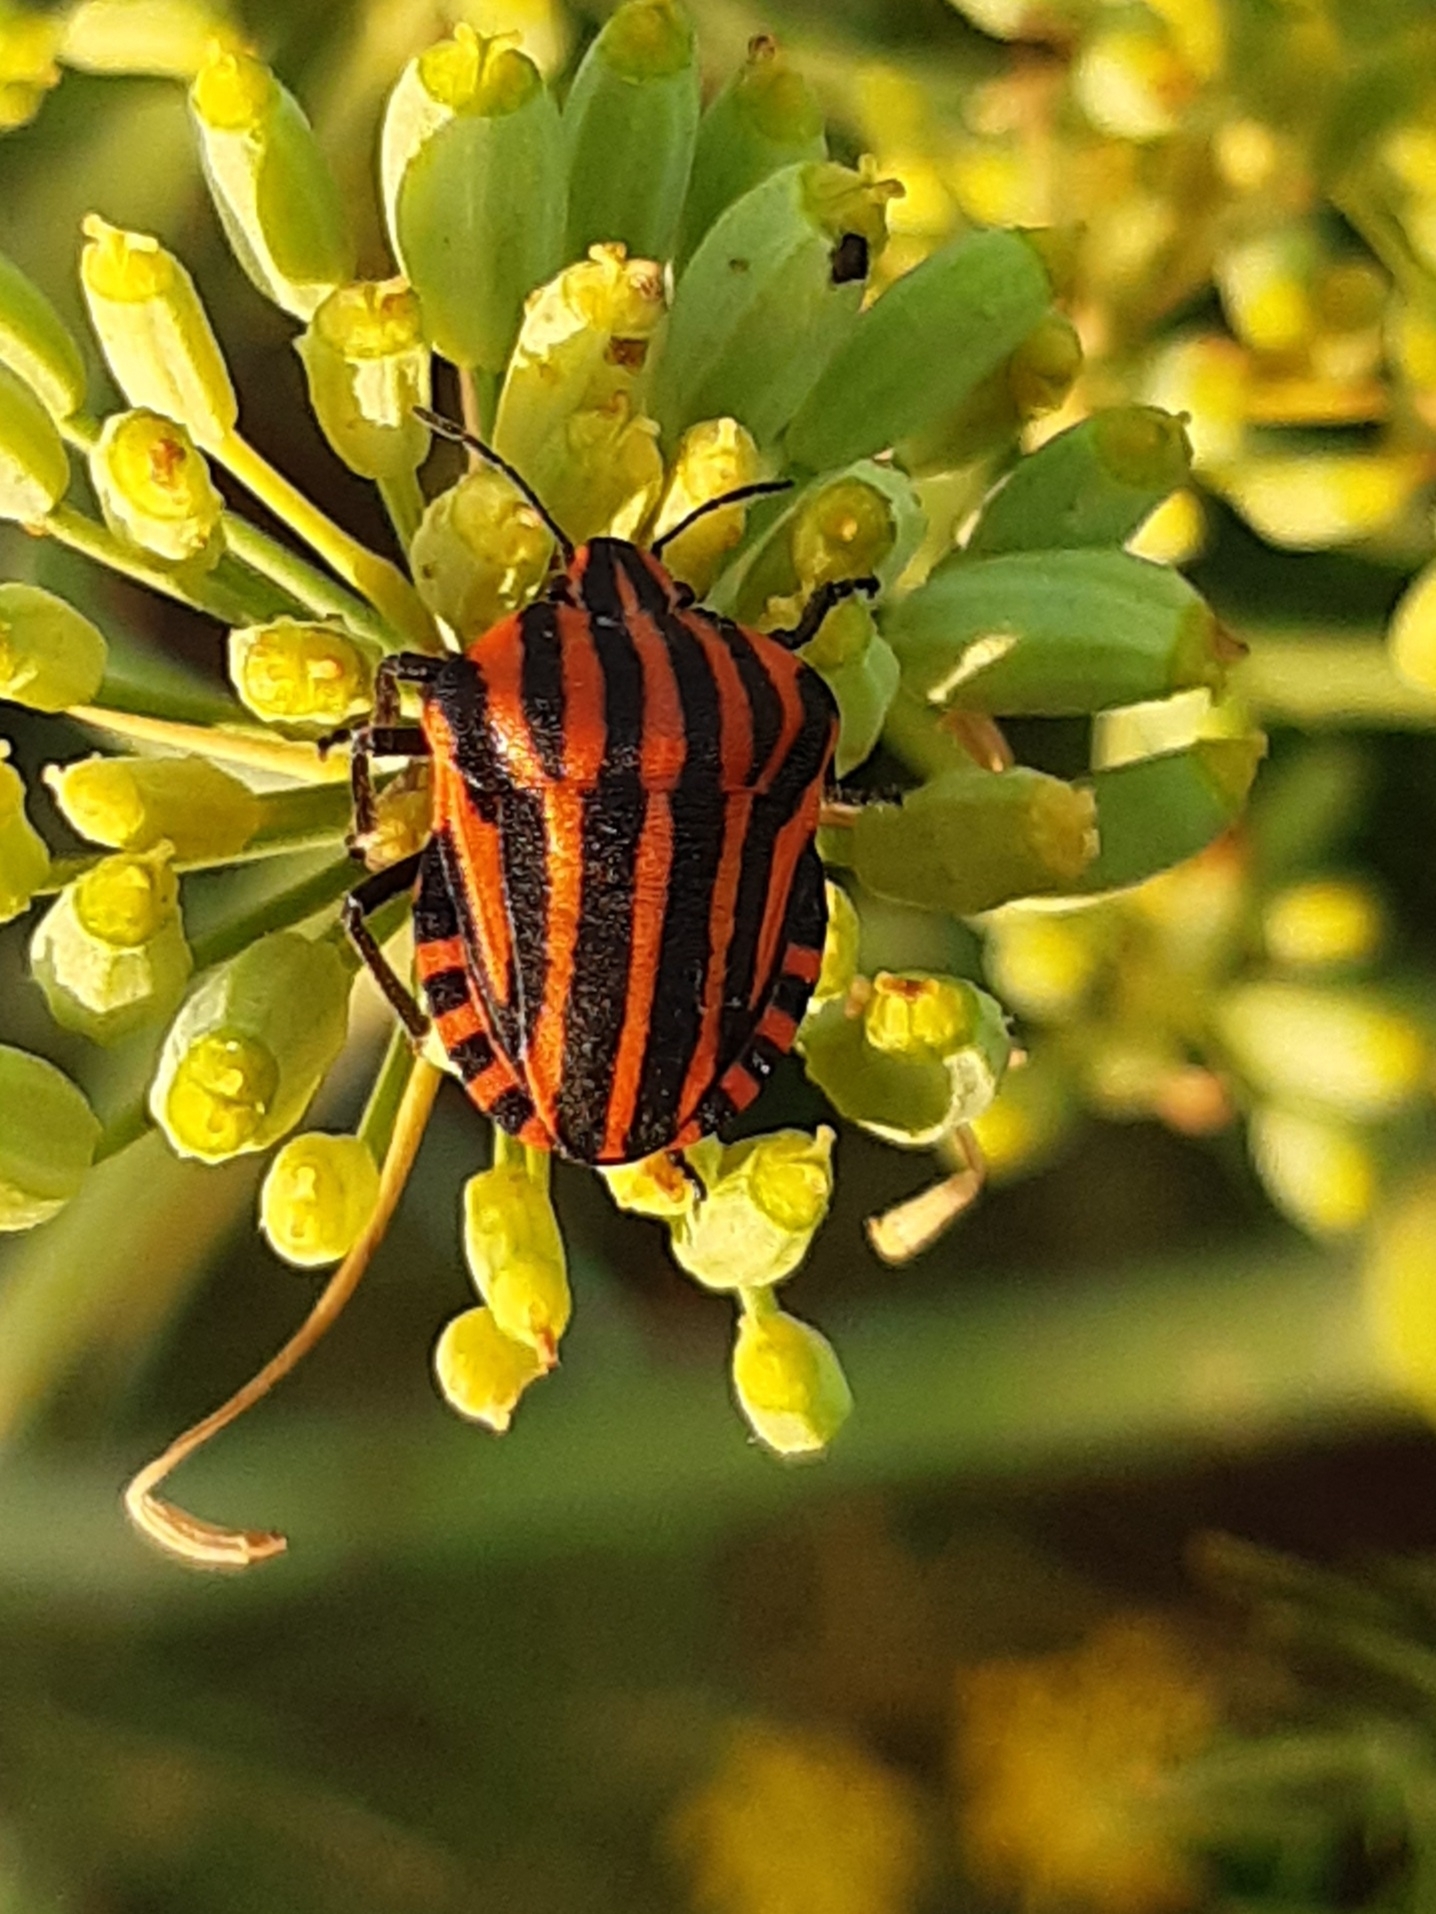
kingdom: Animalia
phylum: Arthropoda
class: Insecta
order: Hemiptera
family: Pentatomidae
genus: Graphosoma
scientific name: Graphosoma italicum
